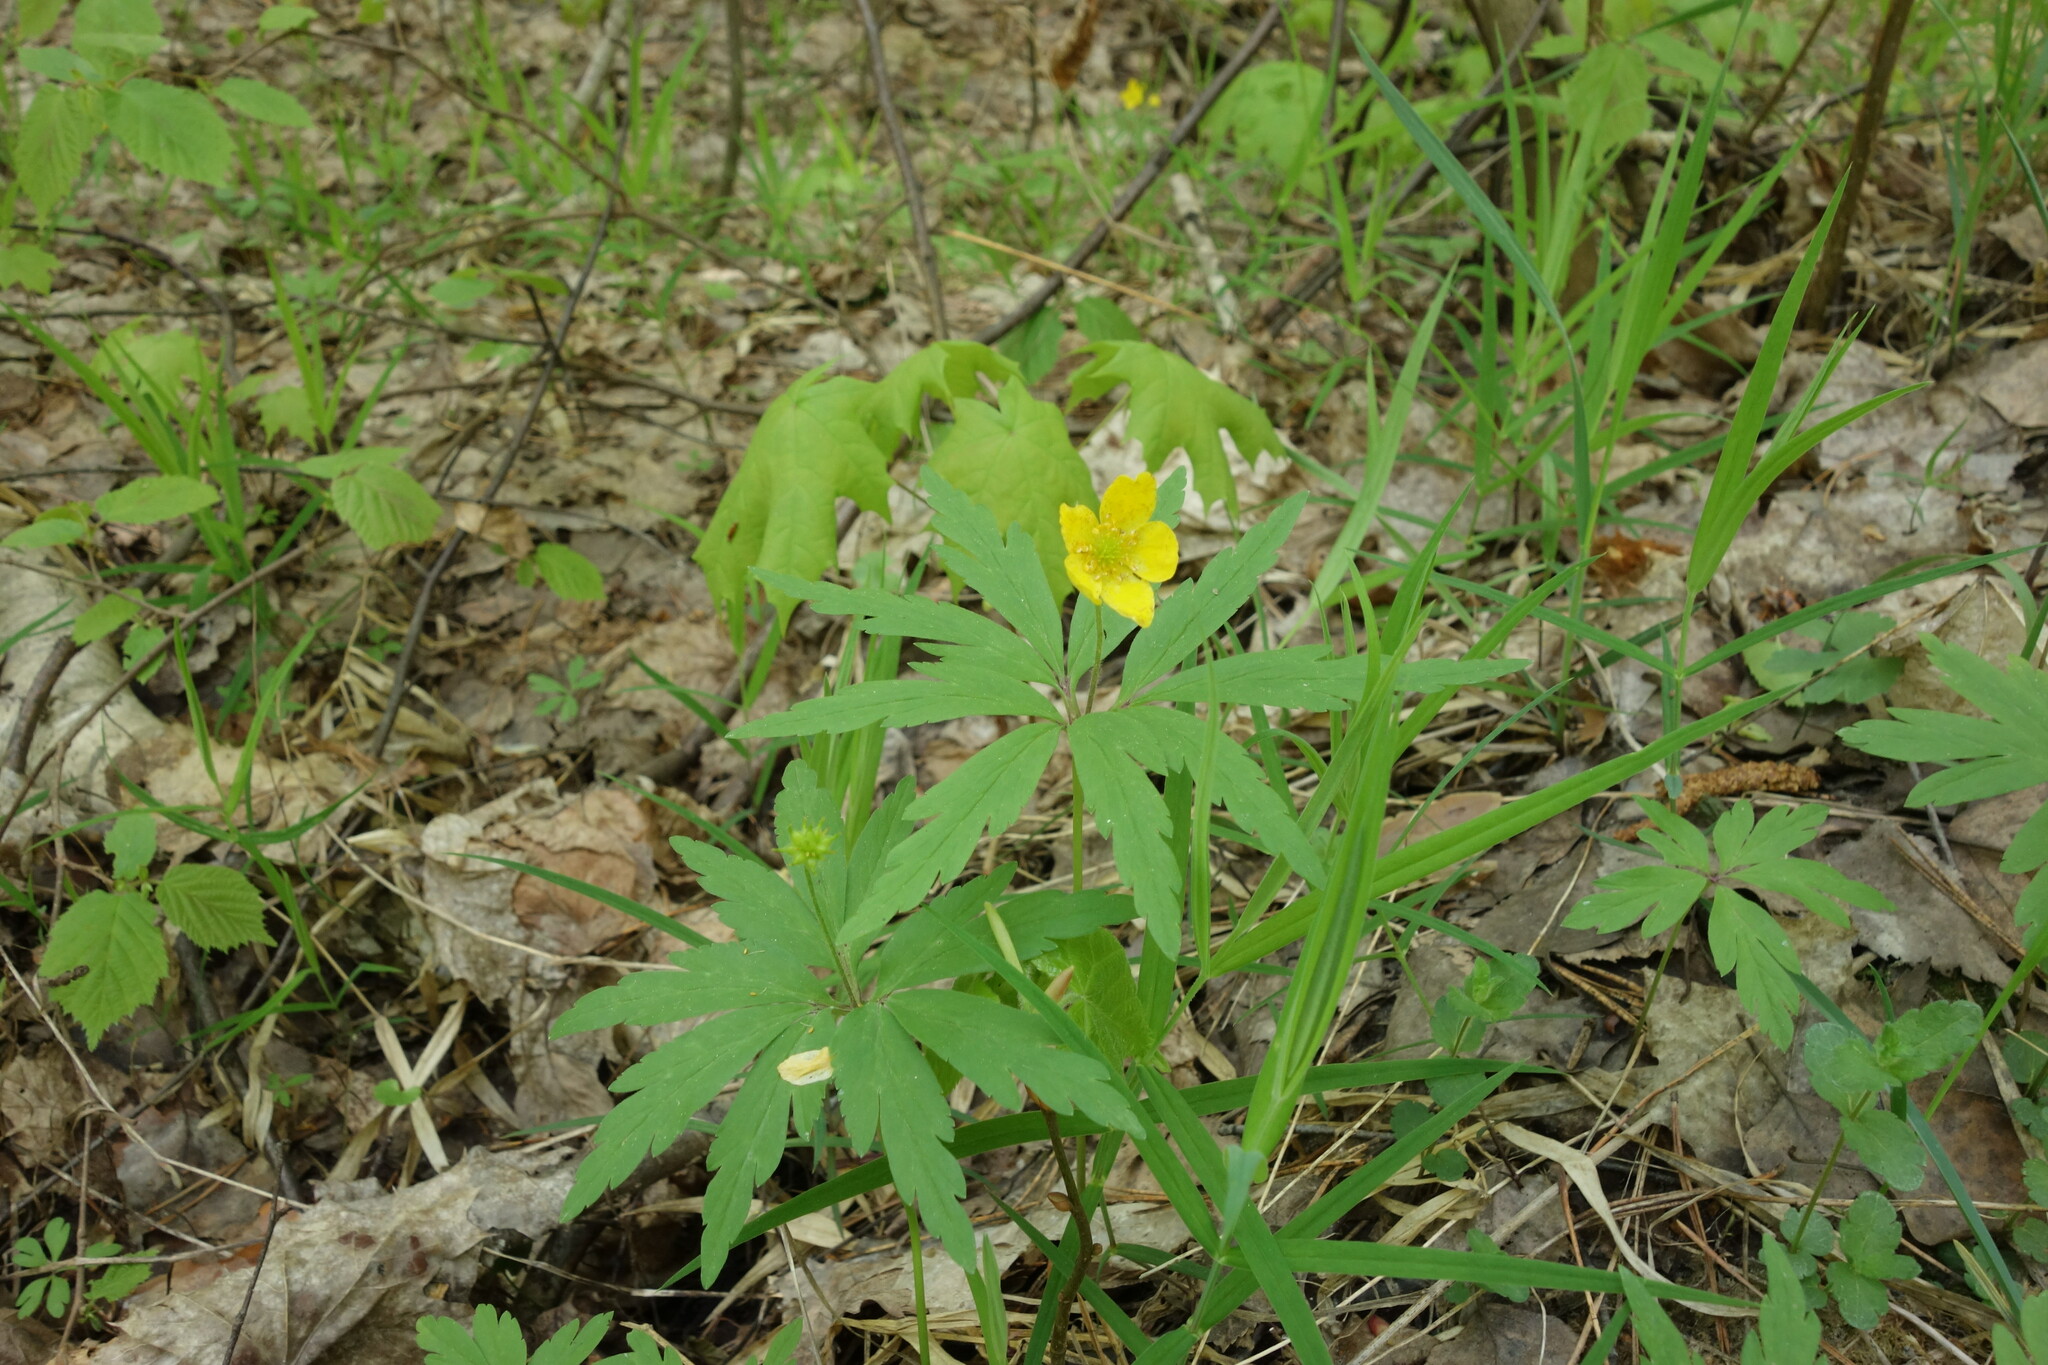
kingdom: Plantae
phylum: Tracheophyta
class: Magnoliopsida
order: Ranunculales
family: Ranunculaceae
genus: Anemone
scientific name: Anemone ranunculoides
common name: Yellow anemone
